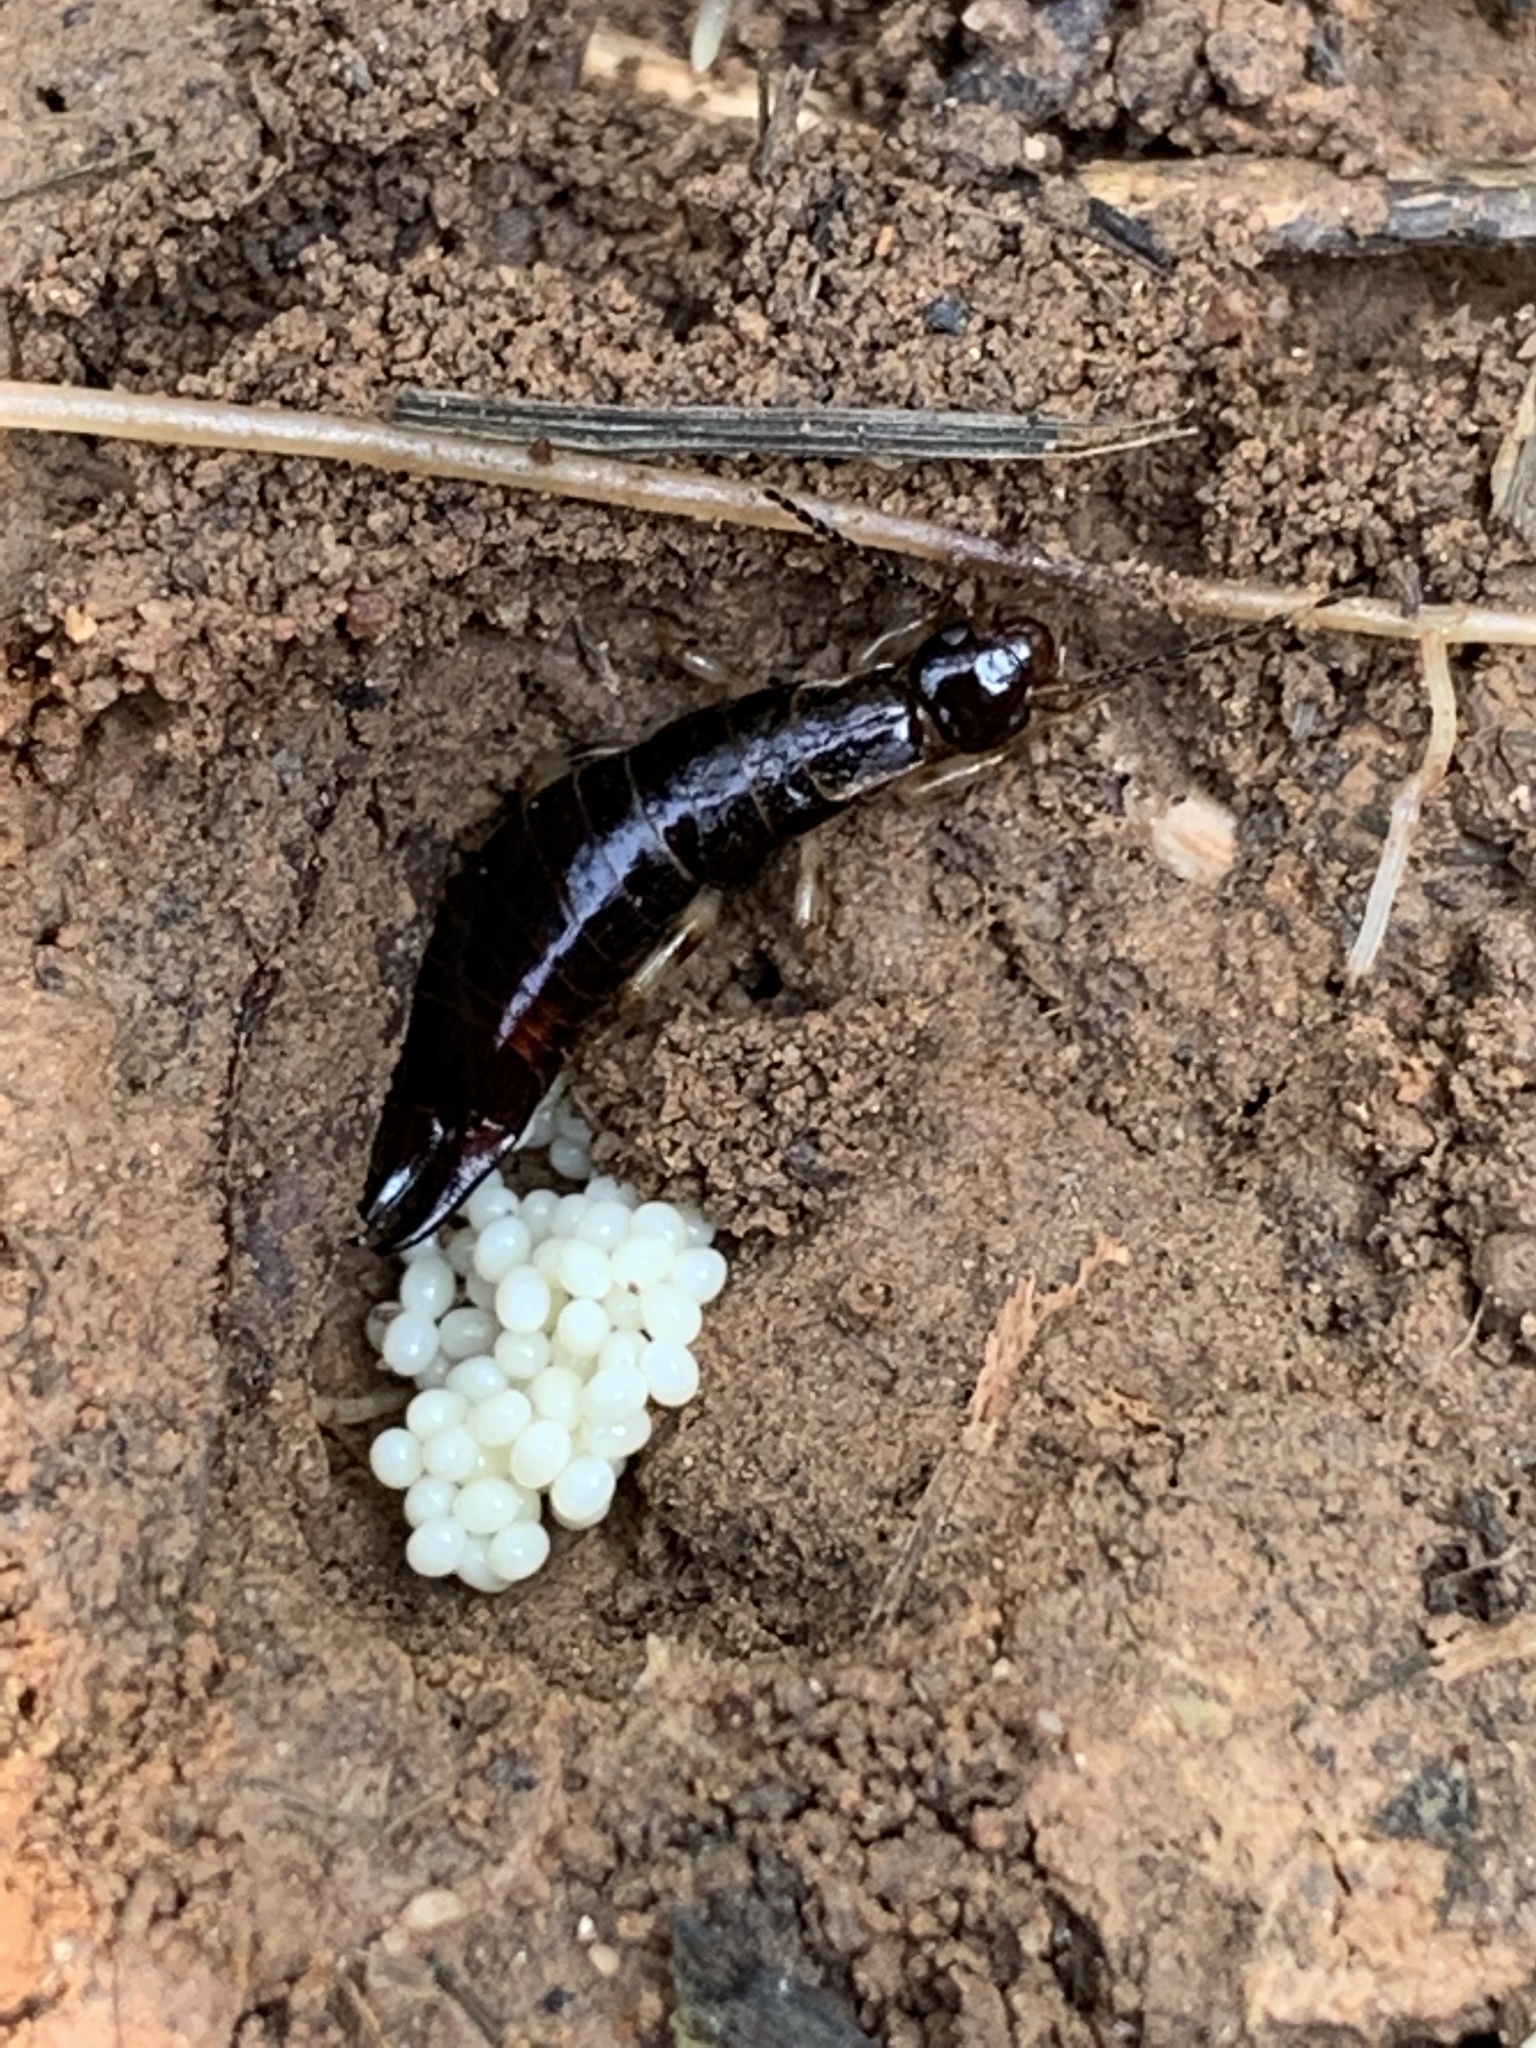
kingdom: Animalia
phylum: Arthropoda
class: Insecta
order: Dermaptera
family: Anisolabididae
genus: Euborellia
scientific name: Euborellia annulipes
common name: Ringlegged earwig
